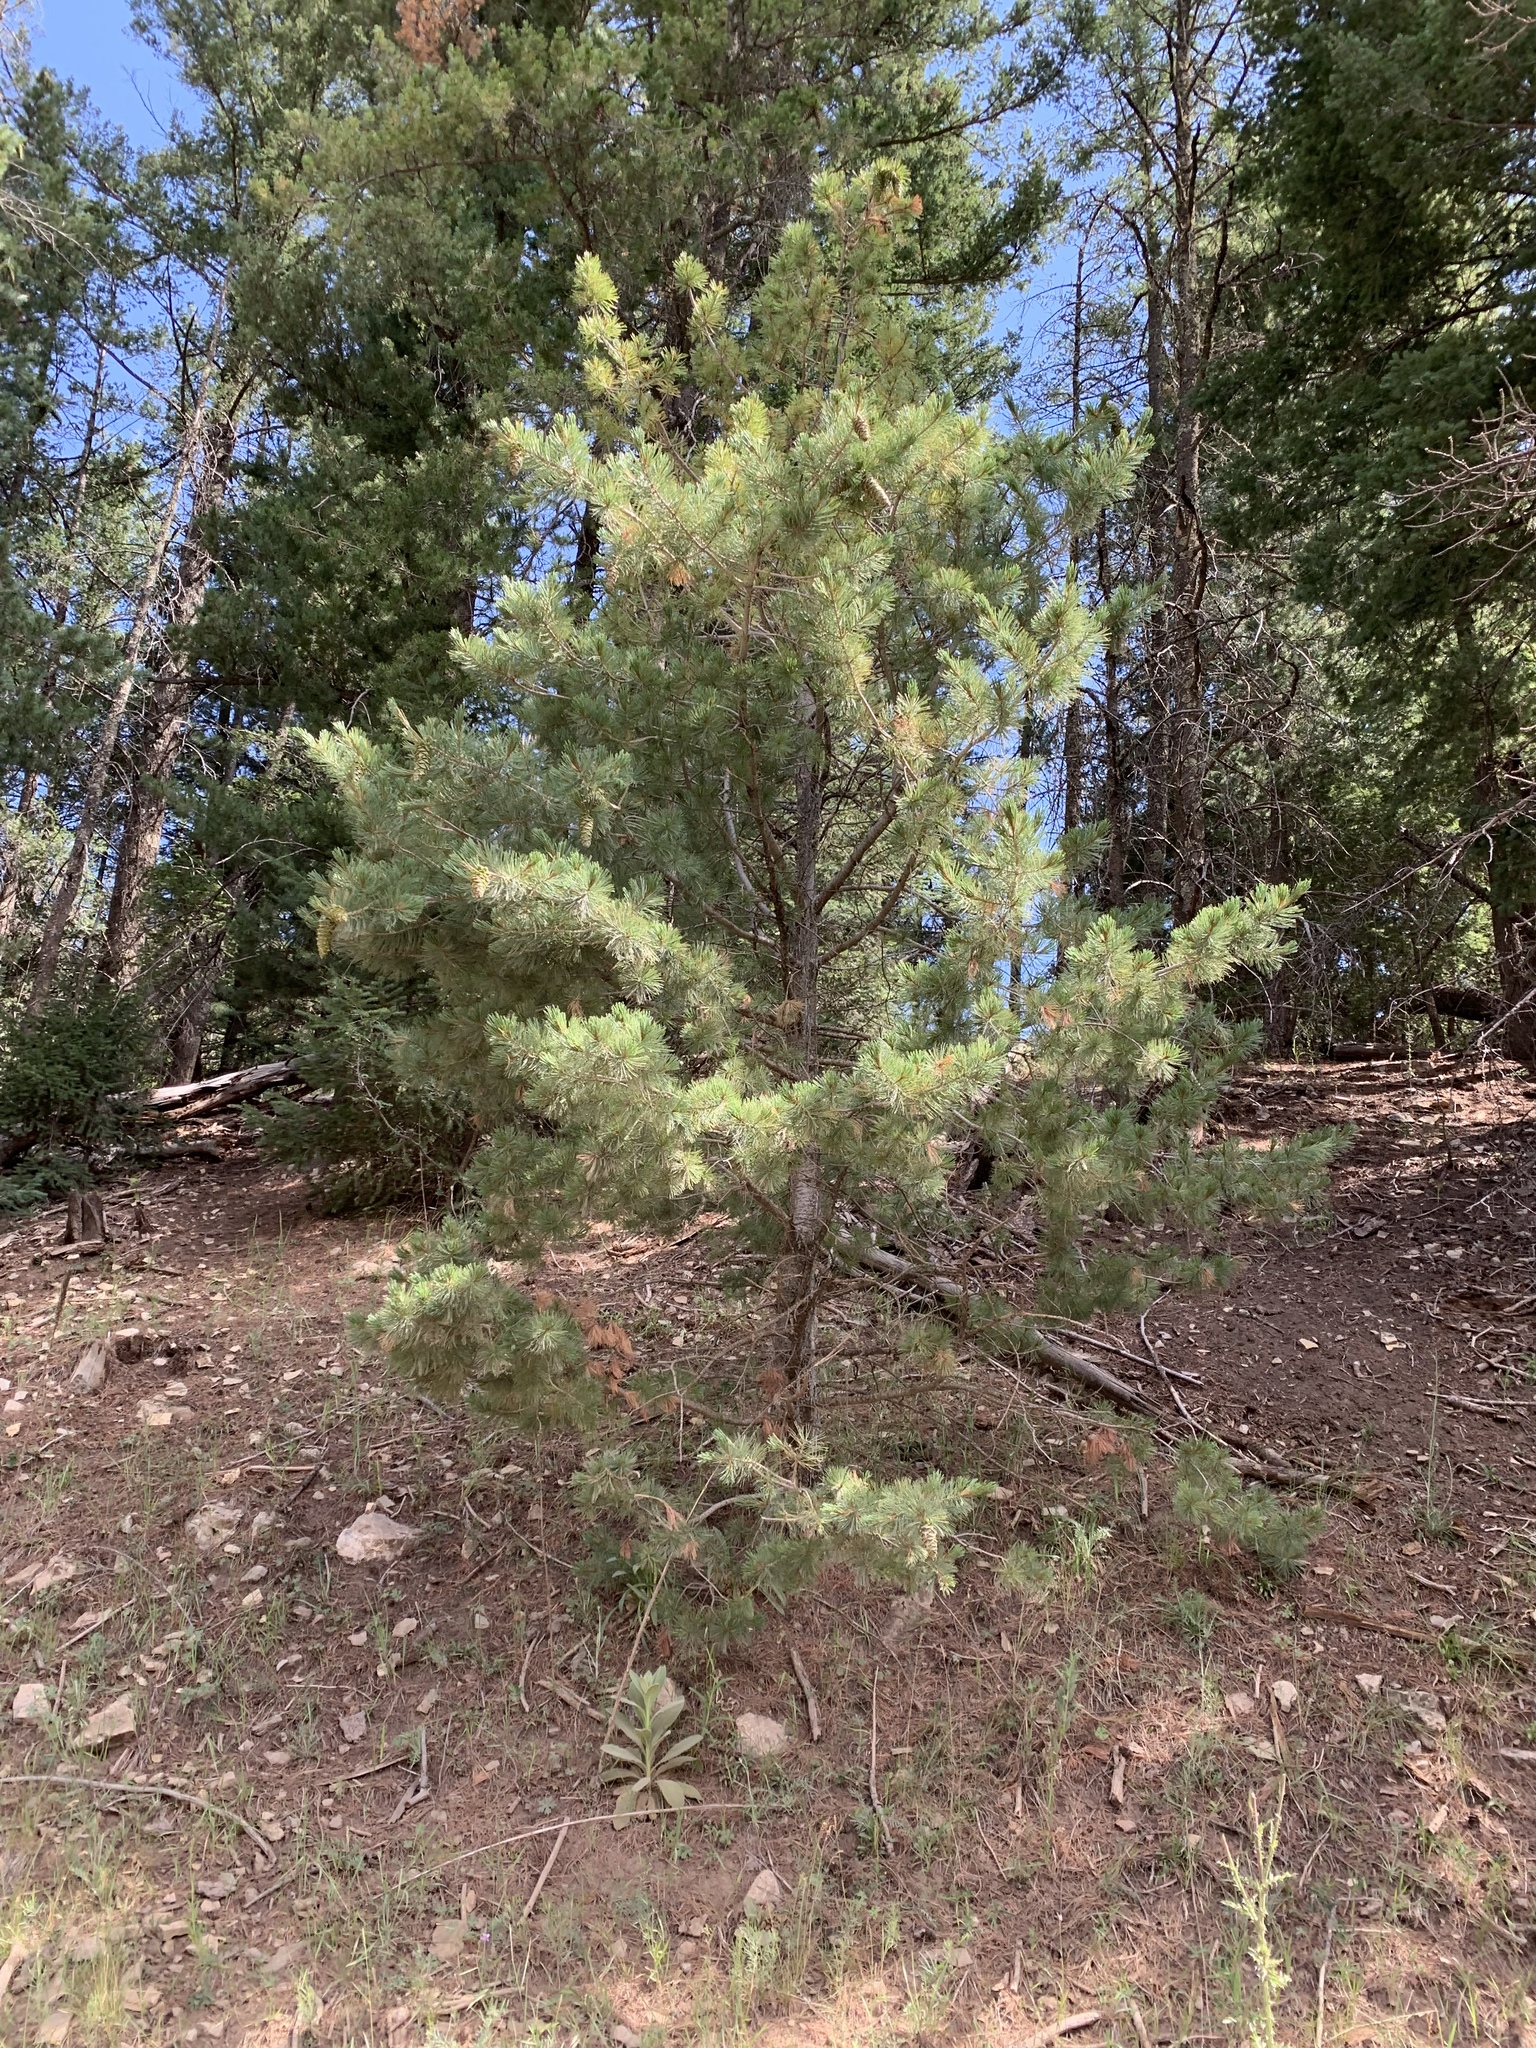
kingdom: Plantae
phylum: Tracheophyta
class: Pinopsida
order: Pinales
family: Pinaceae
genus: Pinus
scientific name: Pinus strobiformis
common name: Southwestern white pine
